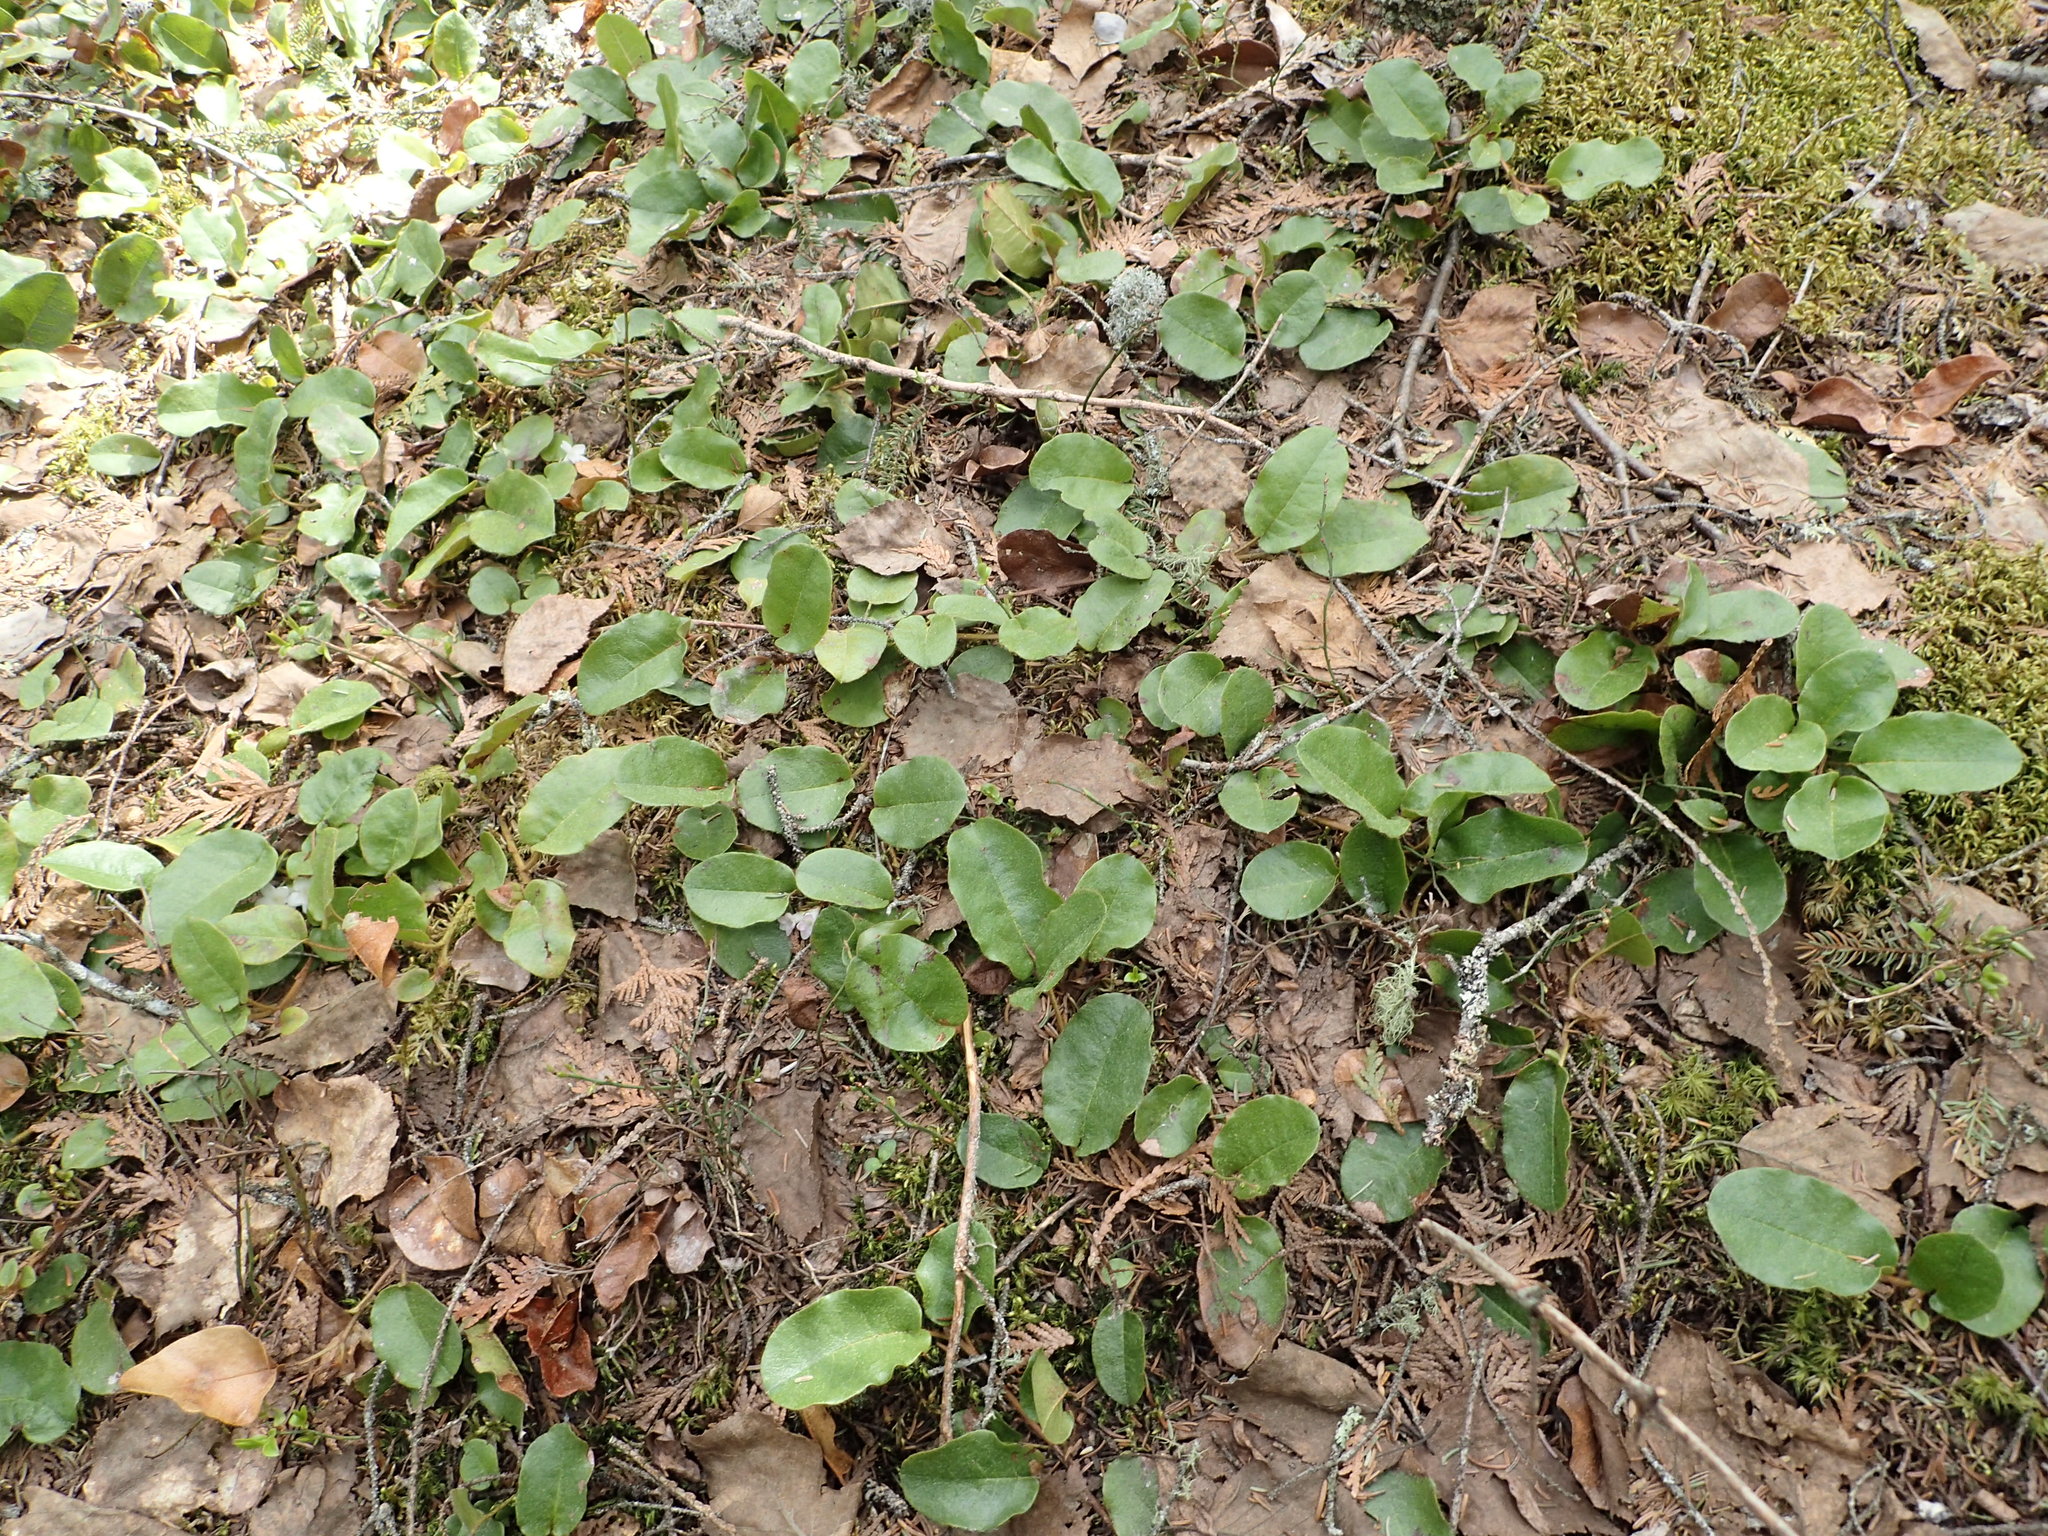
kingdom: Plantae
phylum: Tracheophyta
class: Magnoliopsida
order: Ericales
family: Ericaceae
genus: Epigaea
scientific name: Epigaea repens
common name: Gravelroot
